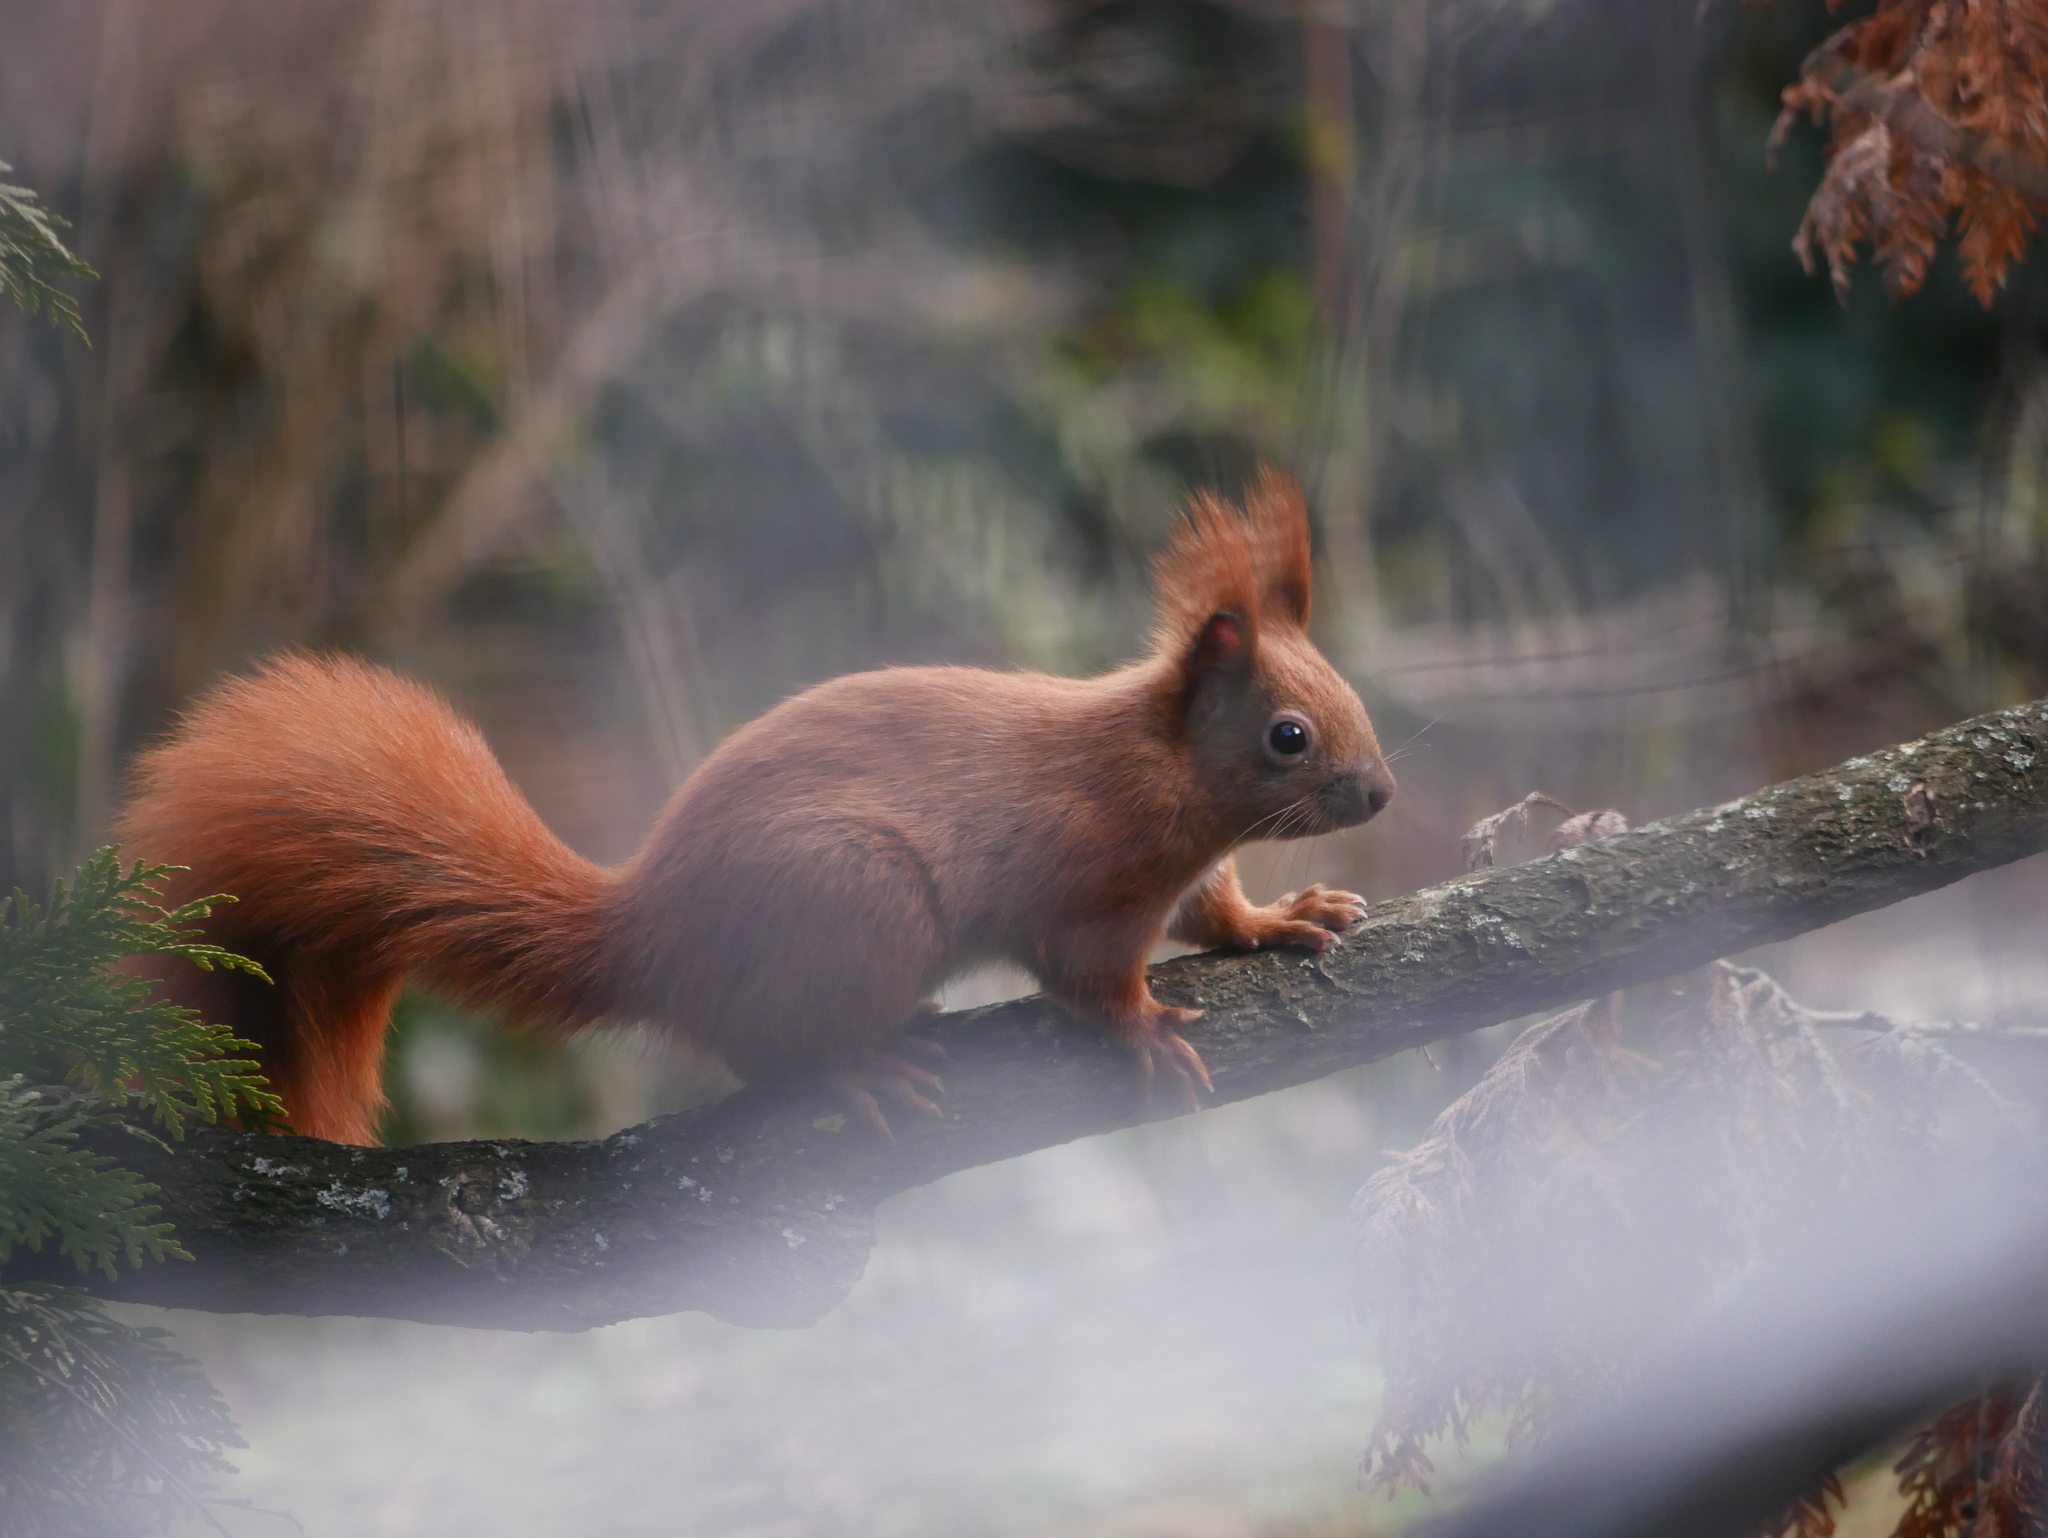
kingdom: Animalia
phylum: Chordata
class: Mammalia
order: Rodentia
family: Sciuridae
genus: Sciurus
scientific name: Sciurus vulgaris
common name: Eurasian red squirrel
